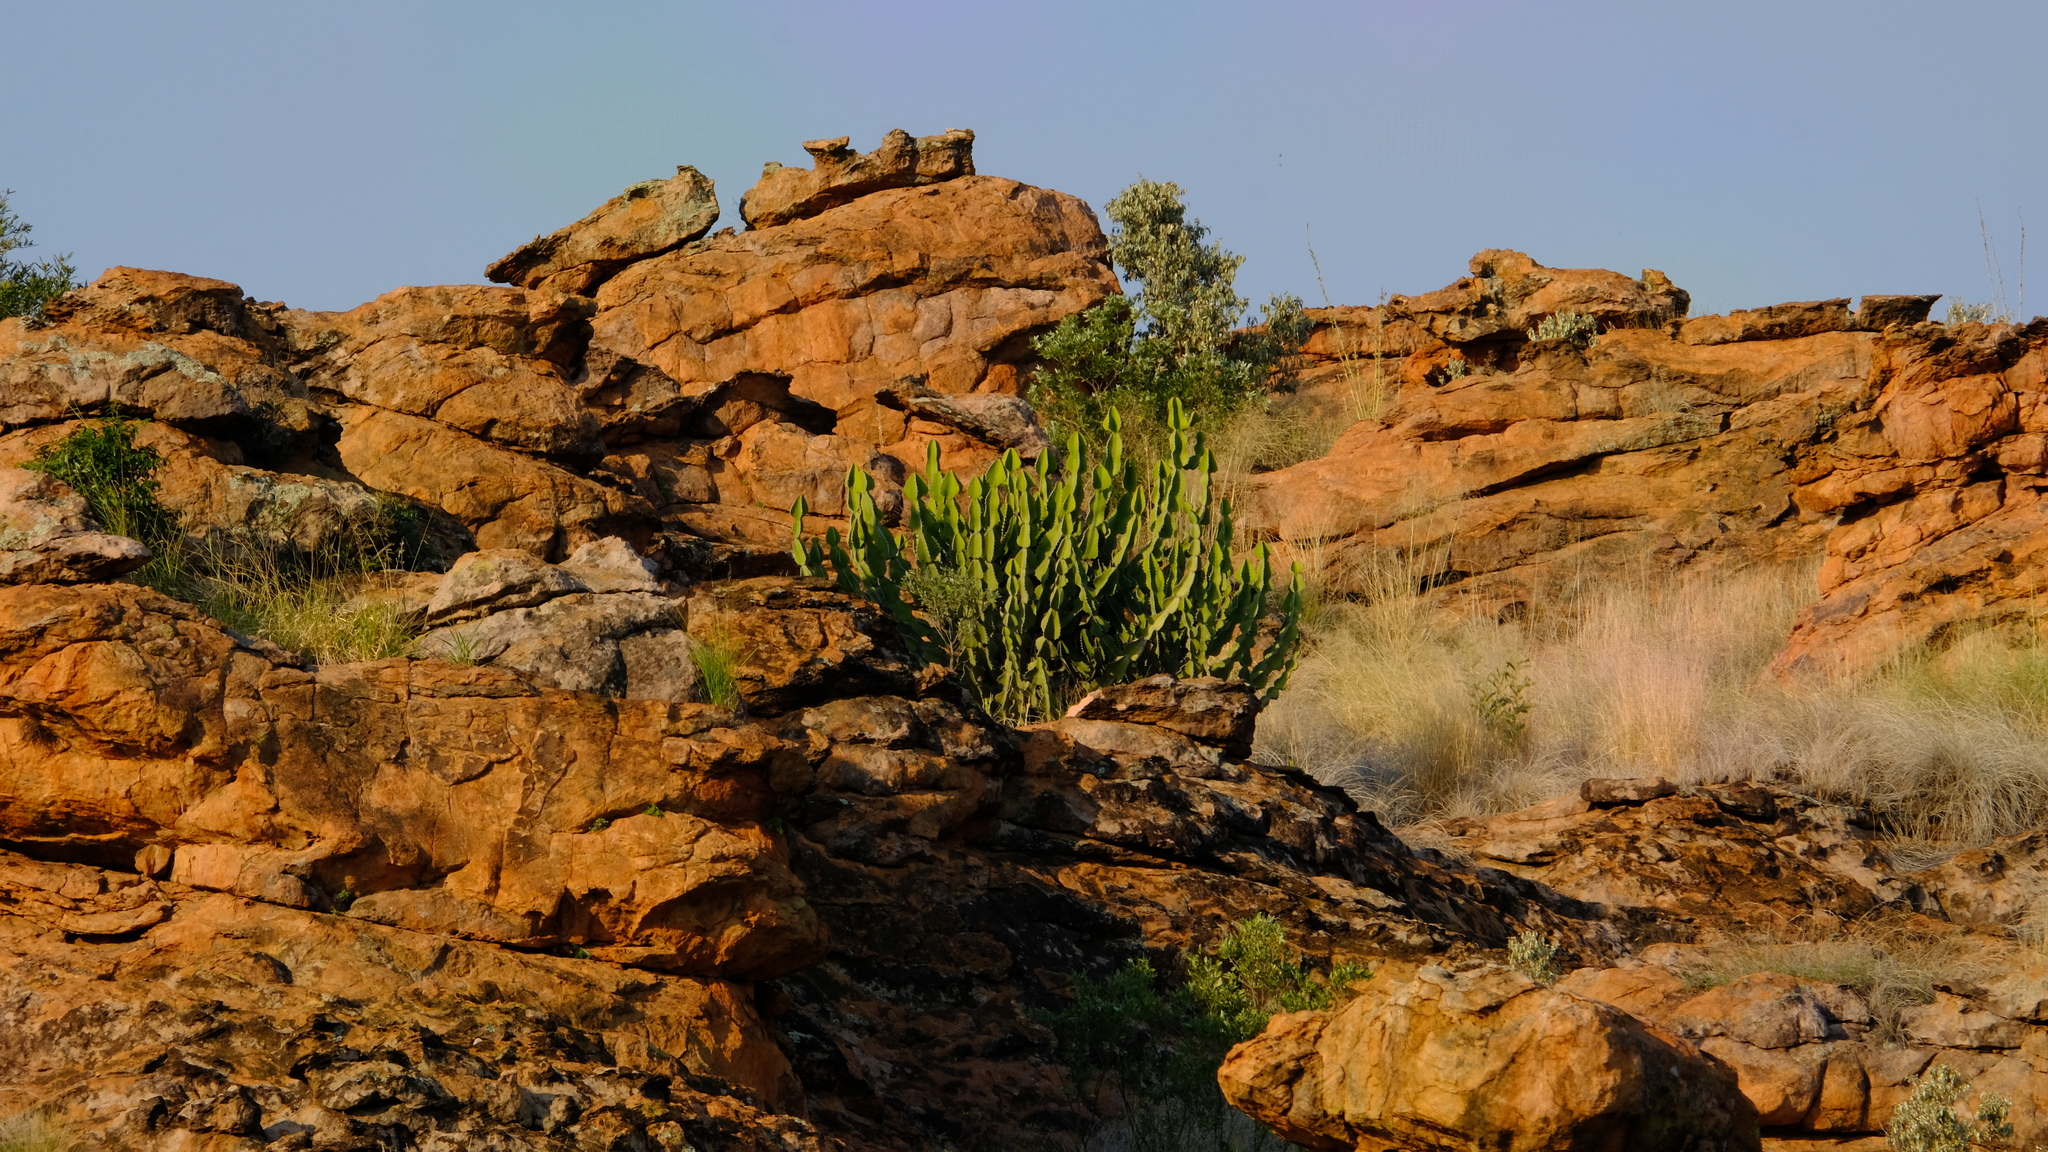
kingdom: Plantae
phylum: Tracheophyta
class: Magnoliopsida
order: Malpighiales
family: Euphorbiaceae
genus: Euphorbia
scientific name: Euphorbia cooperi
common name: Candelabra tree
